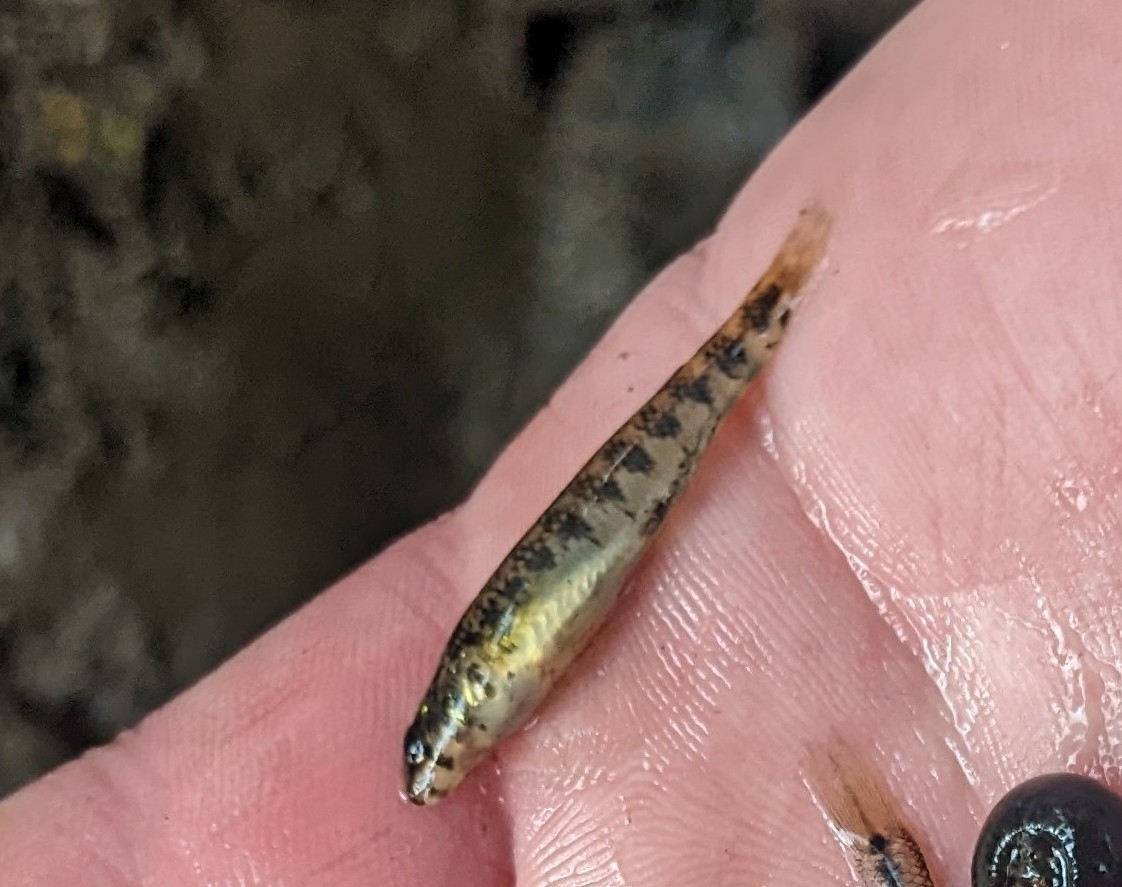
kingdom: Animalia
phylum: Chordata
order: Perciformes
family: Percidae
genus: Etheostoma
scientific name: Etheostoma zonale
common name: Banded darter
